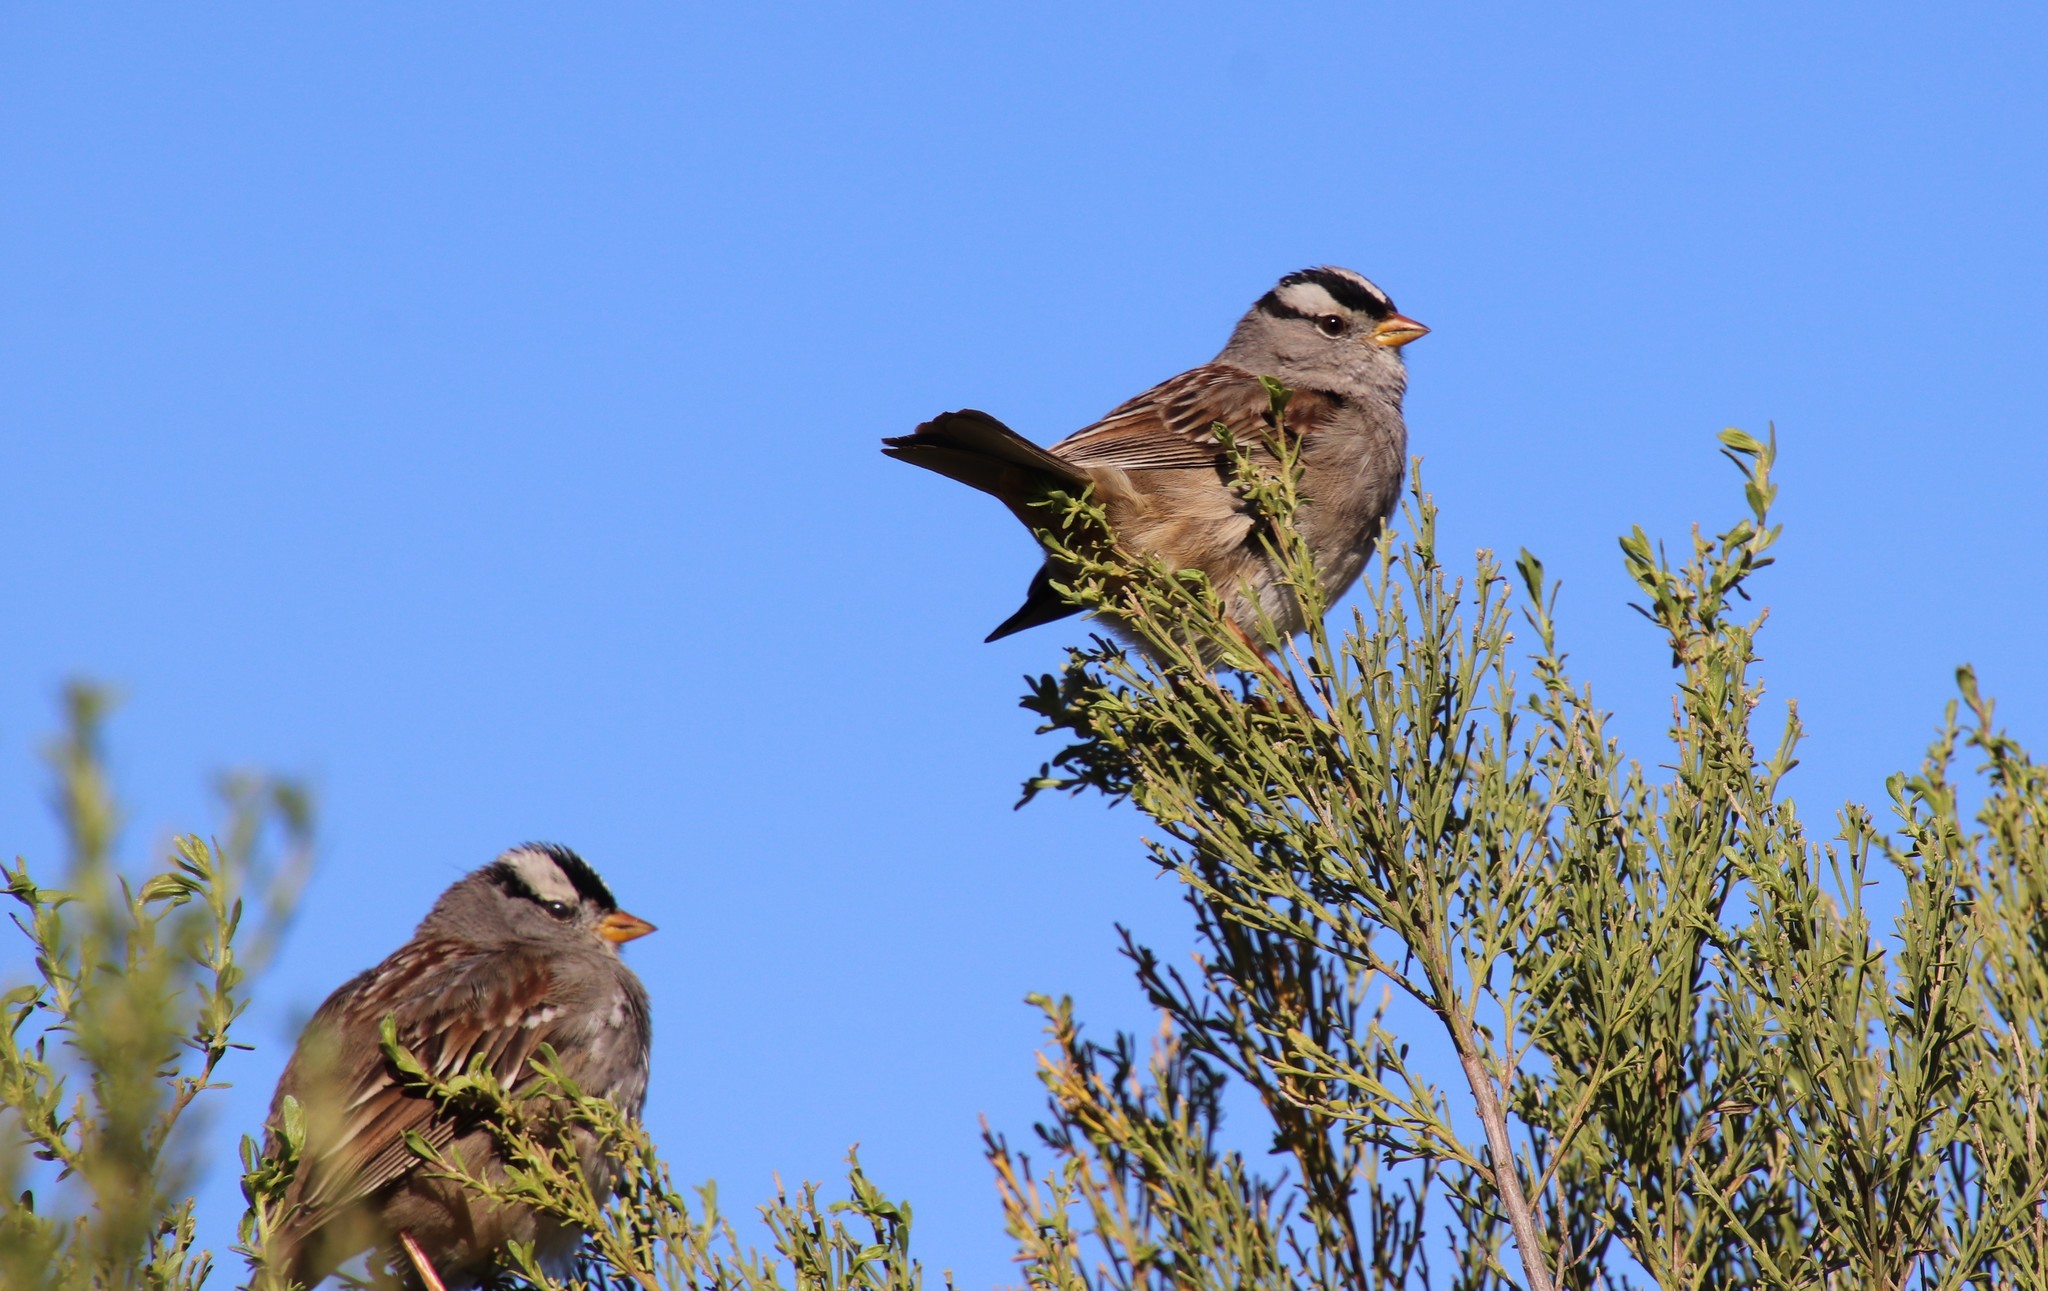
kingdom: Animalia
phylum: Chordata
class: Aves
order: Passeriformes
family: Passerellidae
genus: Zonotrichia
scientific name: Zonotrichia leucophrys
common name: White-crowned sparrow
